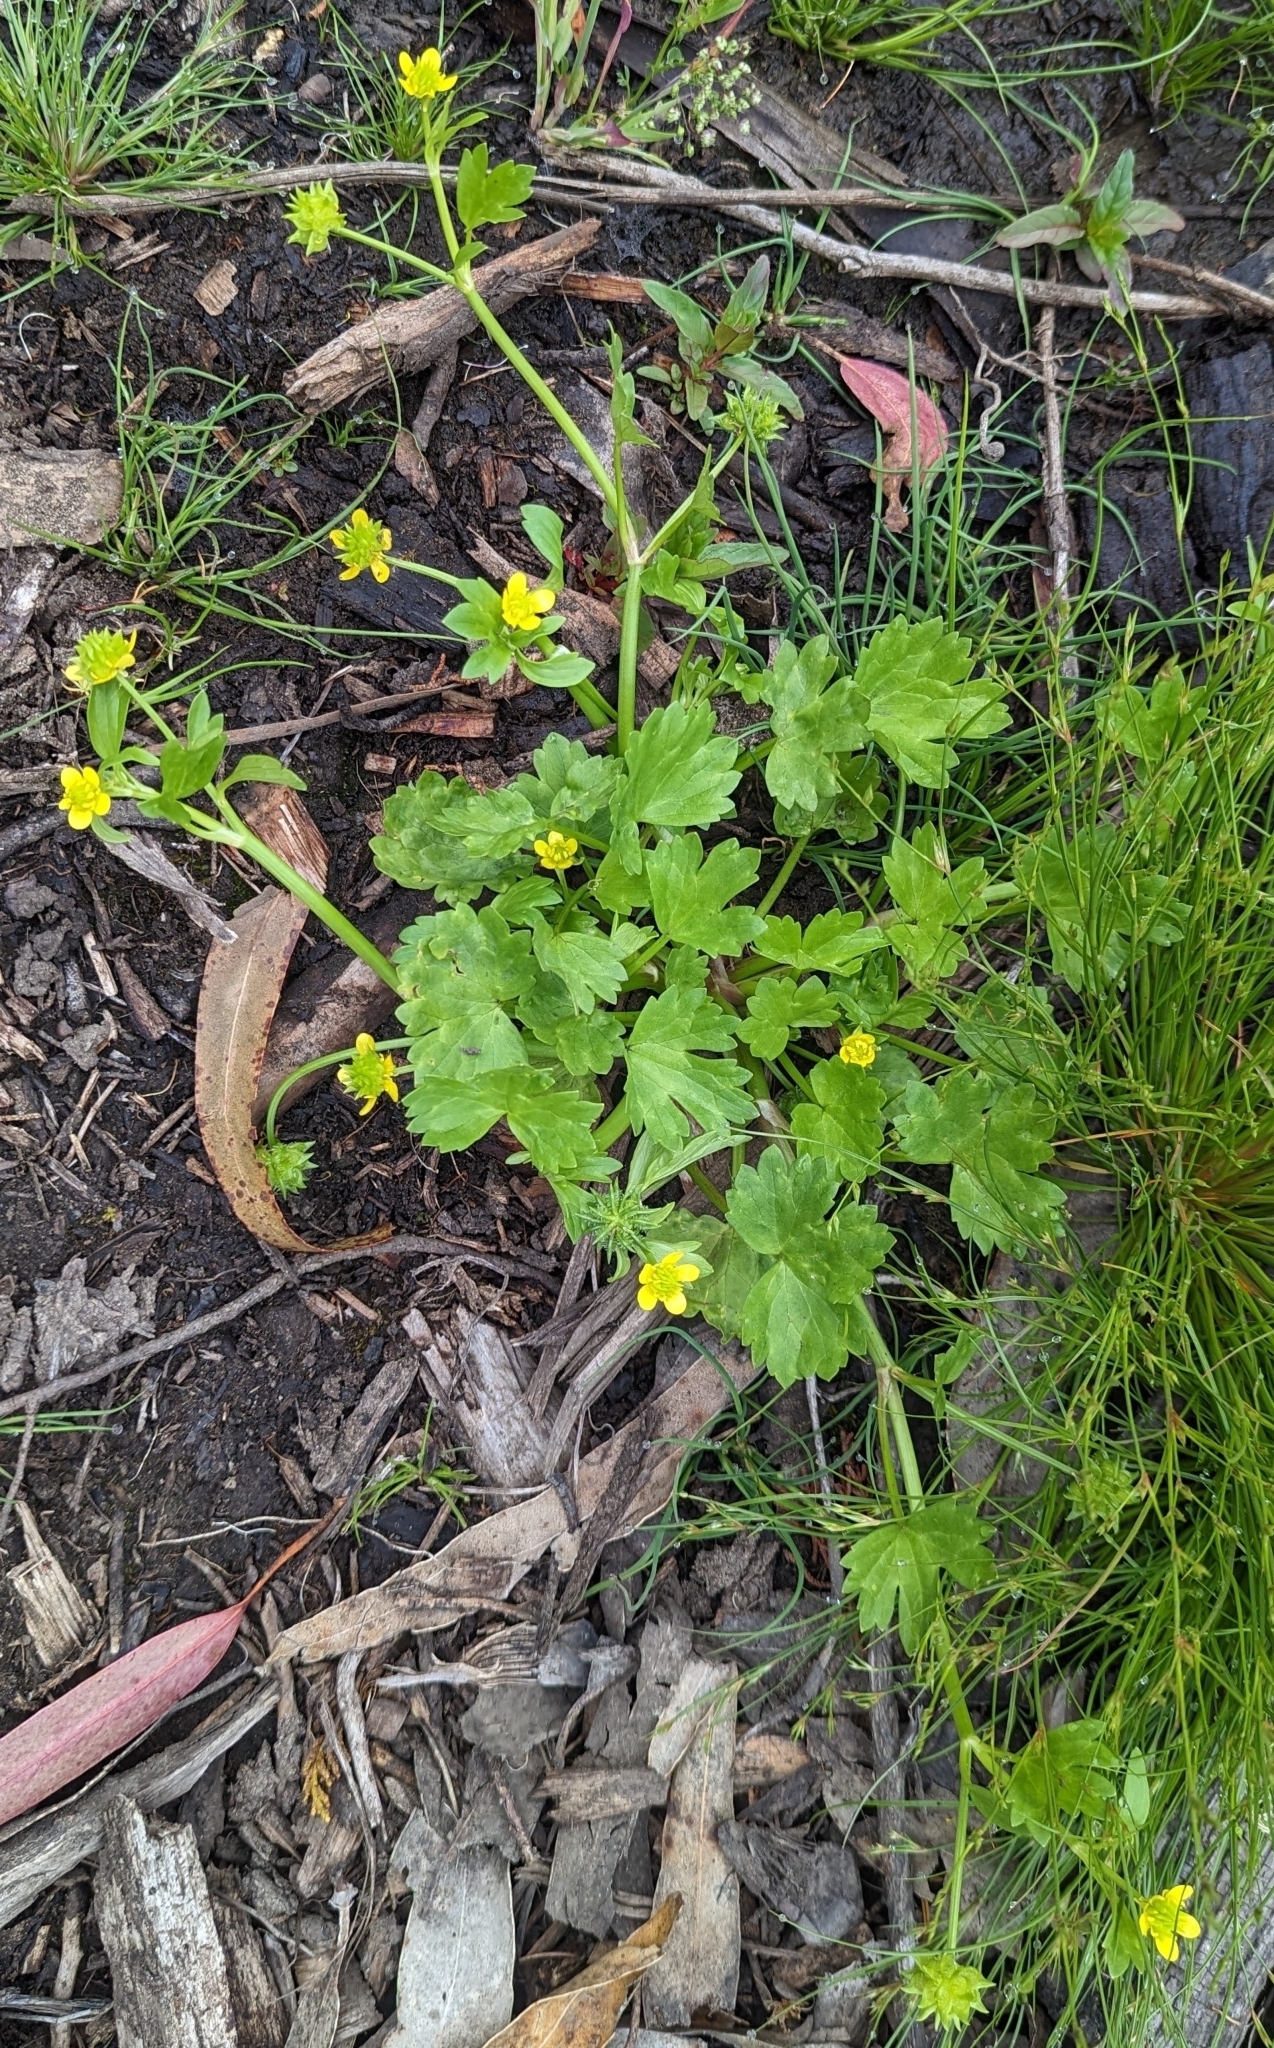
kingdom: Plantae
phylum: Tracheophyta
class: Magnoliopsida
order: Ranunculales
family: Ranunculaceae
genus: Ranunculus
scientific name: Ranunculus muricatus
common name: Rough-fruited buttercup
